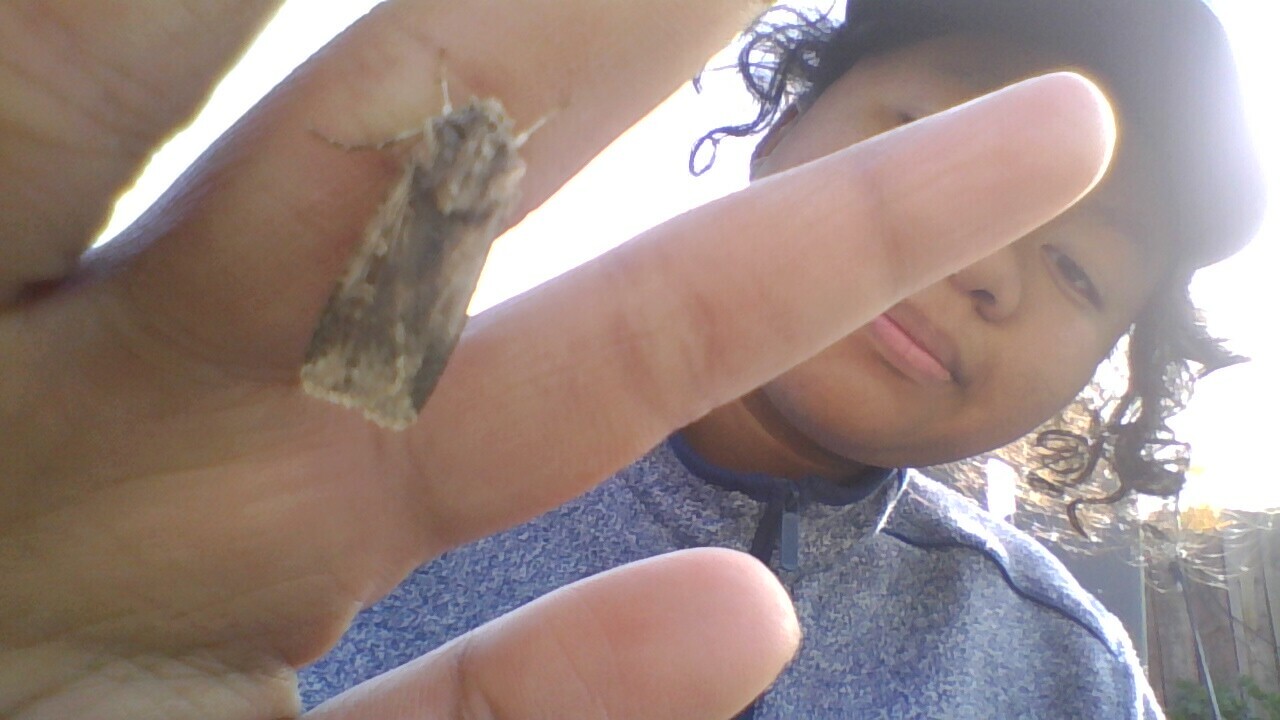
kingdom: Animalia
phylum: Arthropoda
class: Insecta
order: Lepidoptera
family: Noctuidae
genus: Feltia
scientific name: Feltia subterranea
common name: Granulate cutworm
